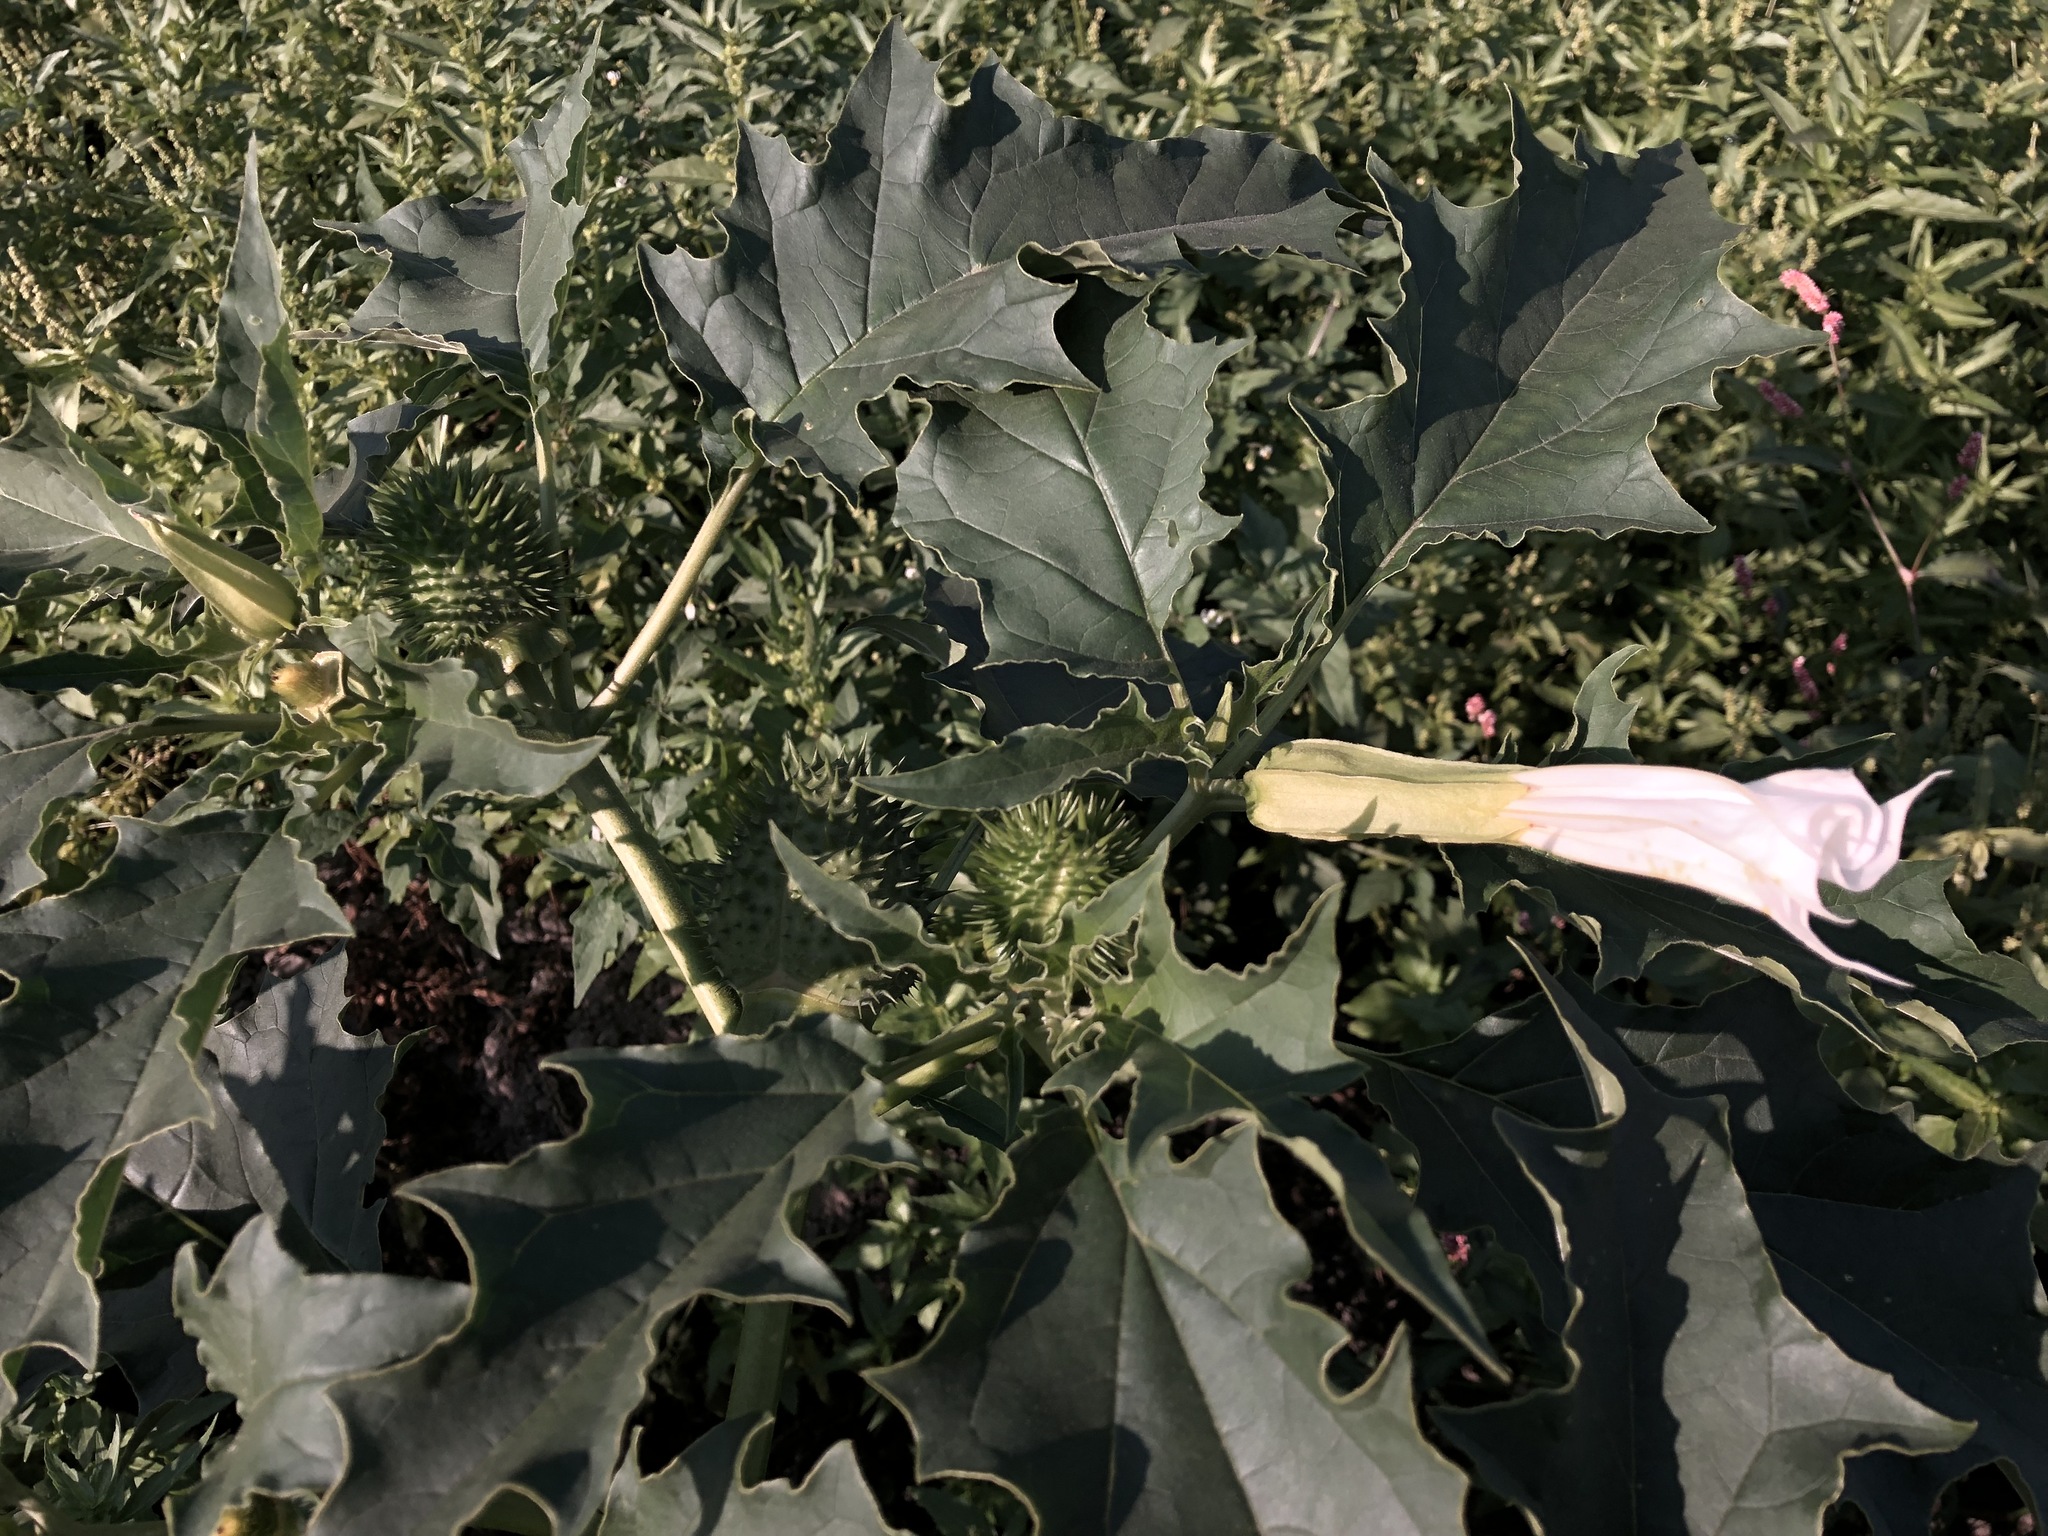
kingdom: Plantae
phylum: Tracheophyta
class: Magnoliopsida
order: Solanales
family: Solanaceae
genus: Datura
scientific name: Datura stramonium
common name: Thorn-apple
